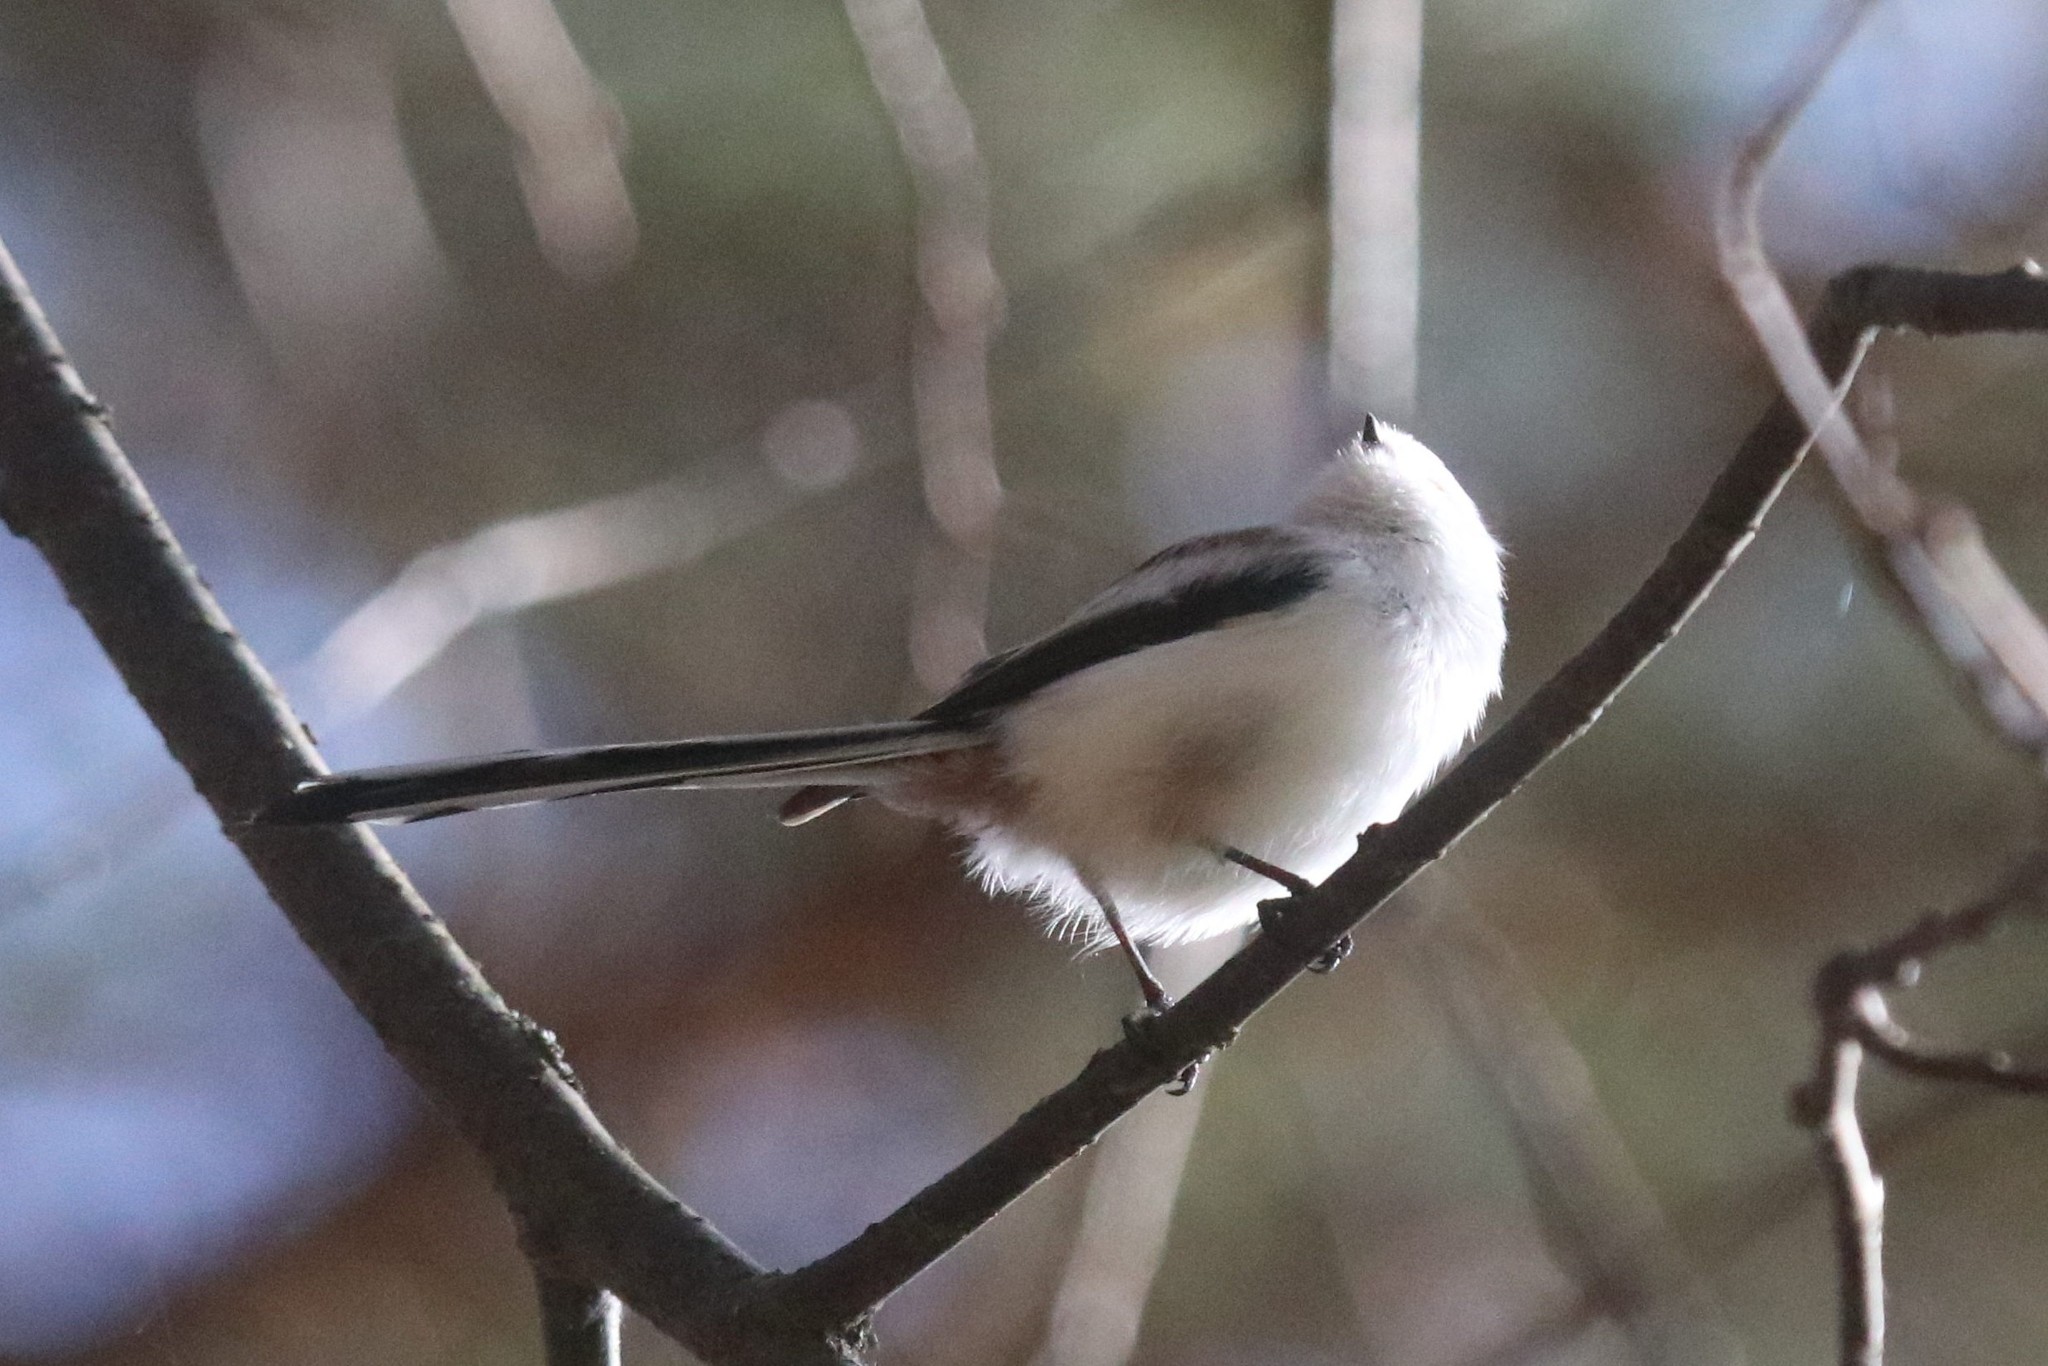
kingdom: Animalia
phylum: Chordata
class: Aves
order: Passeriformes
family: Aegithalidae
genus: Aegithalos
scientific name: Aegithalos caudatus
